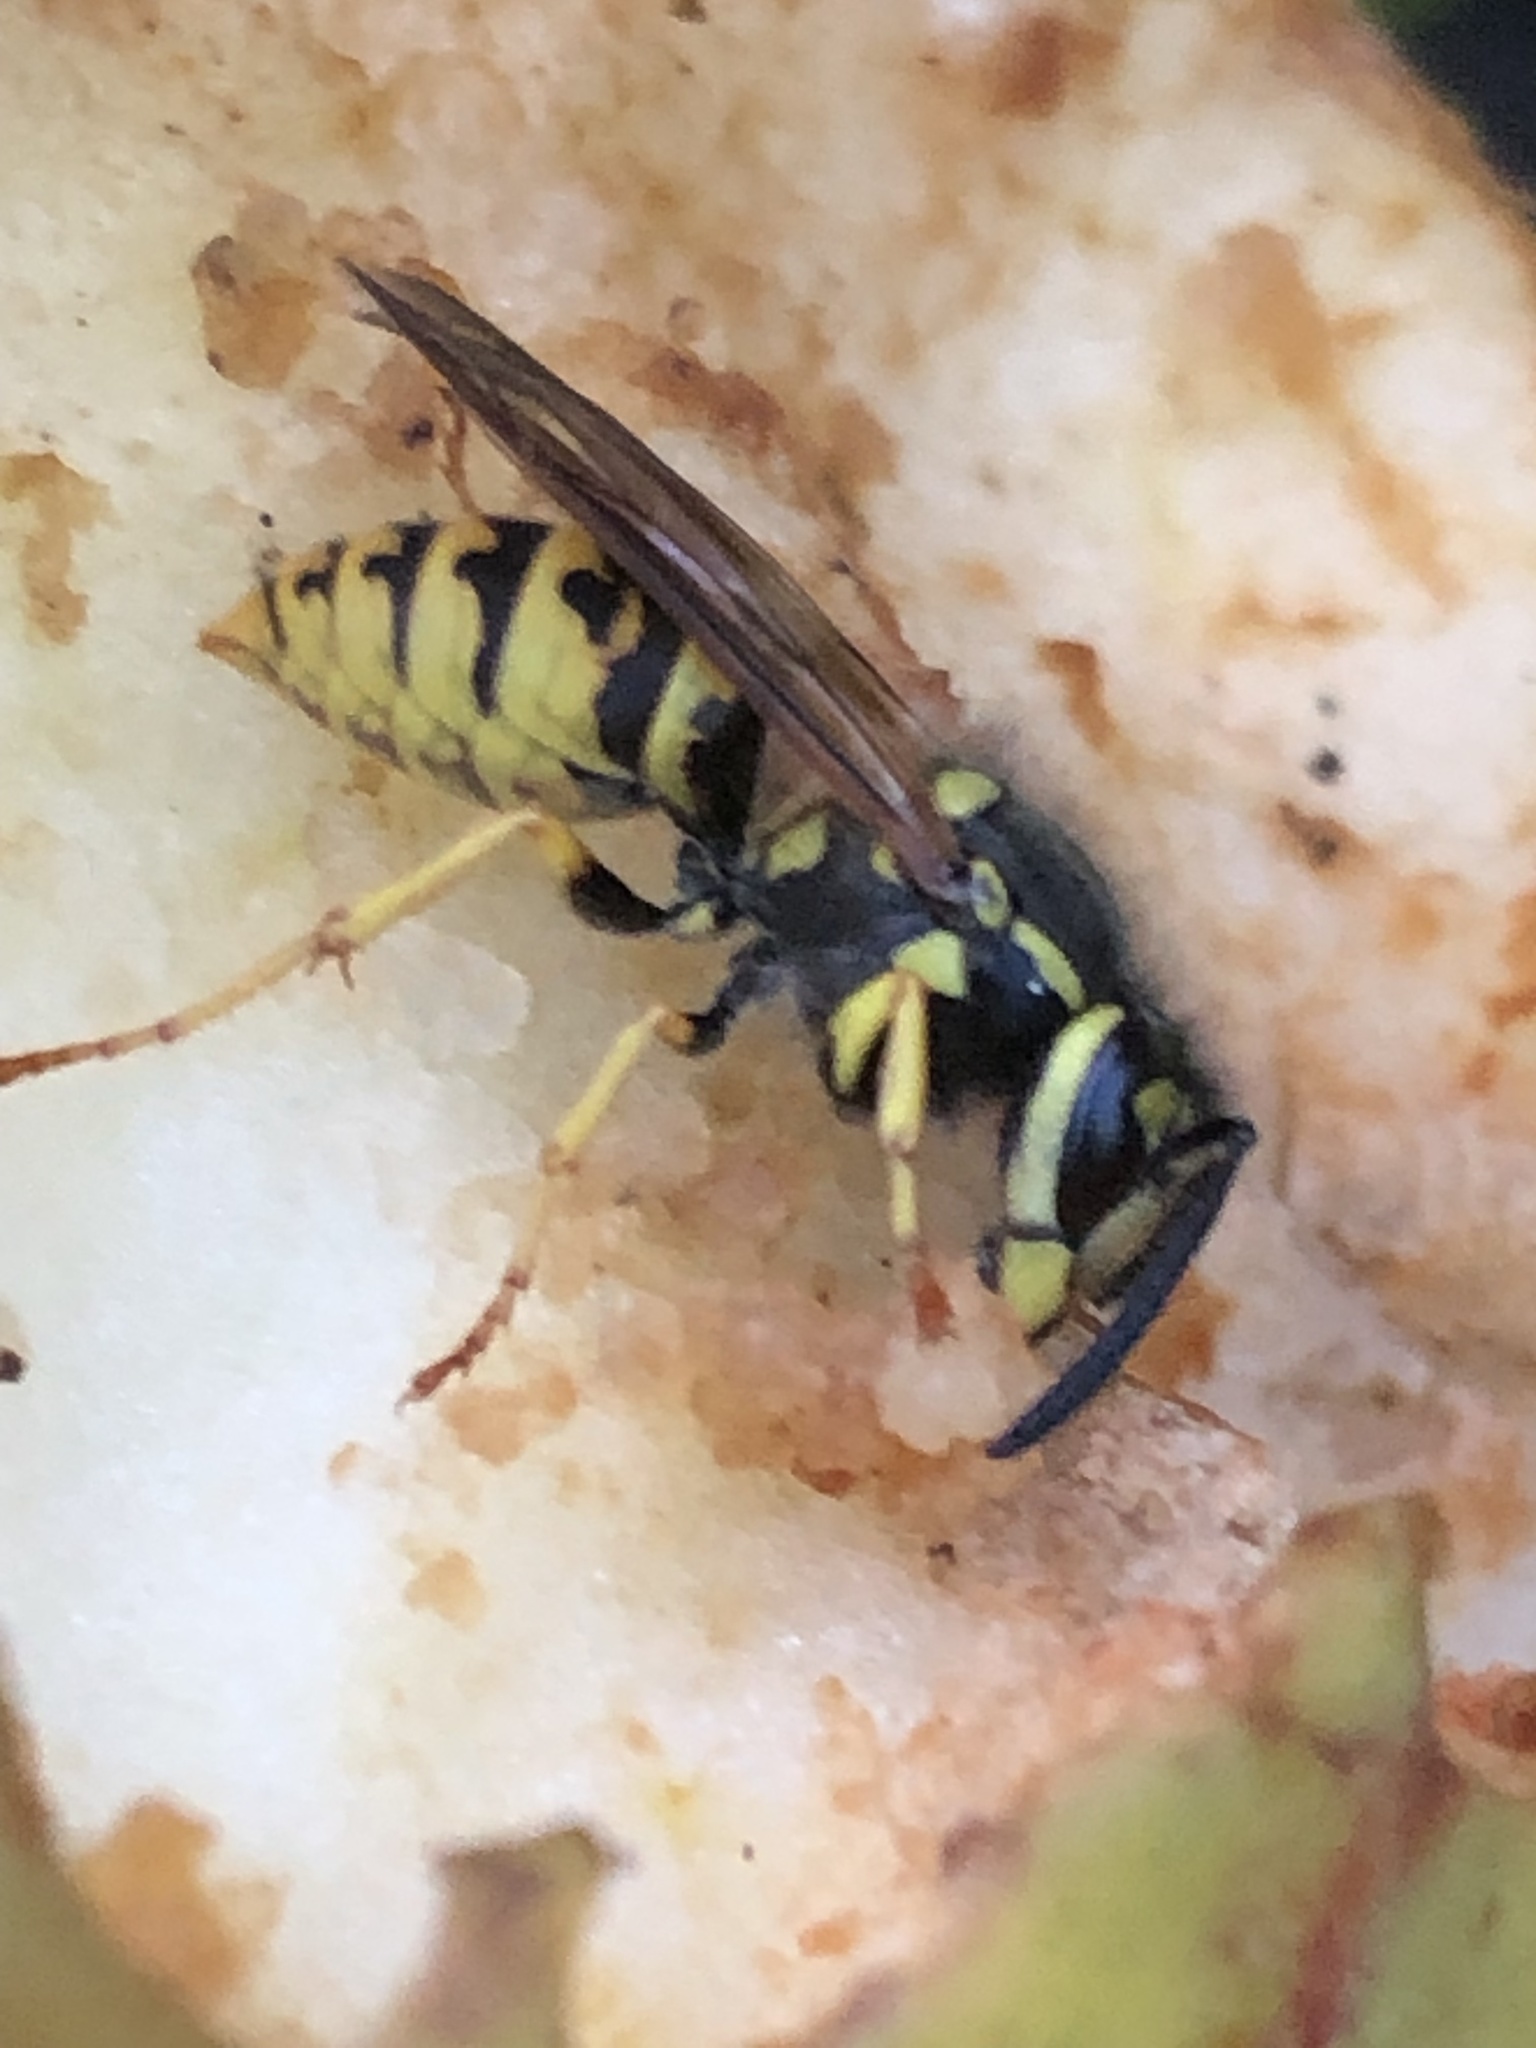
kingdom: Animalia
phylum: Arthropoda
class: Insecta
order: Hymenoptera
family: Vespidae
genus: Vespula
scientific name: Vespula germanica
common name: German wasp
